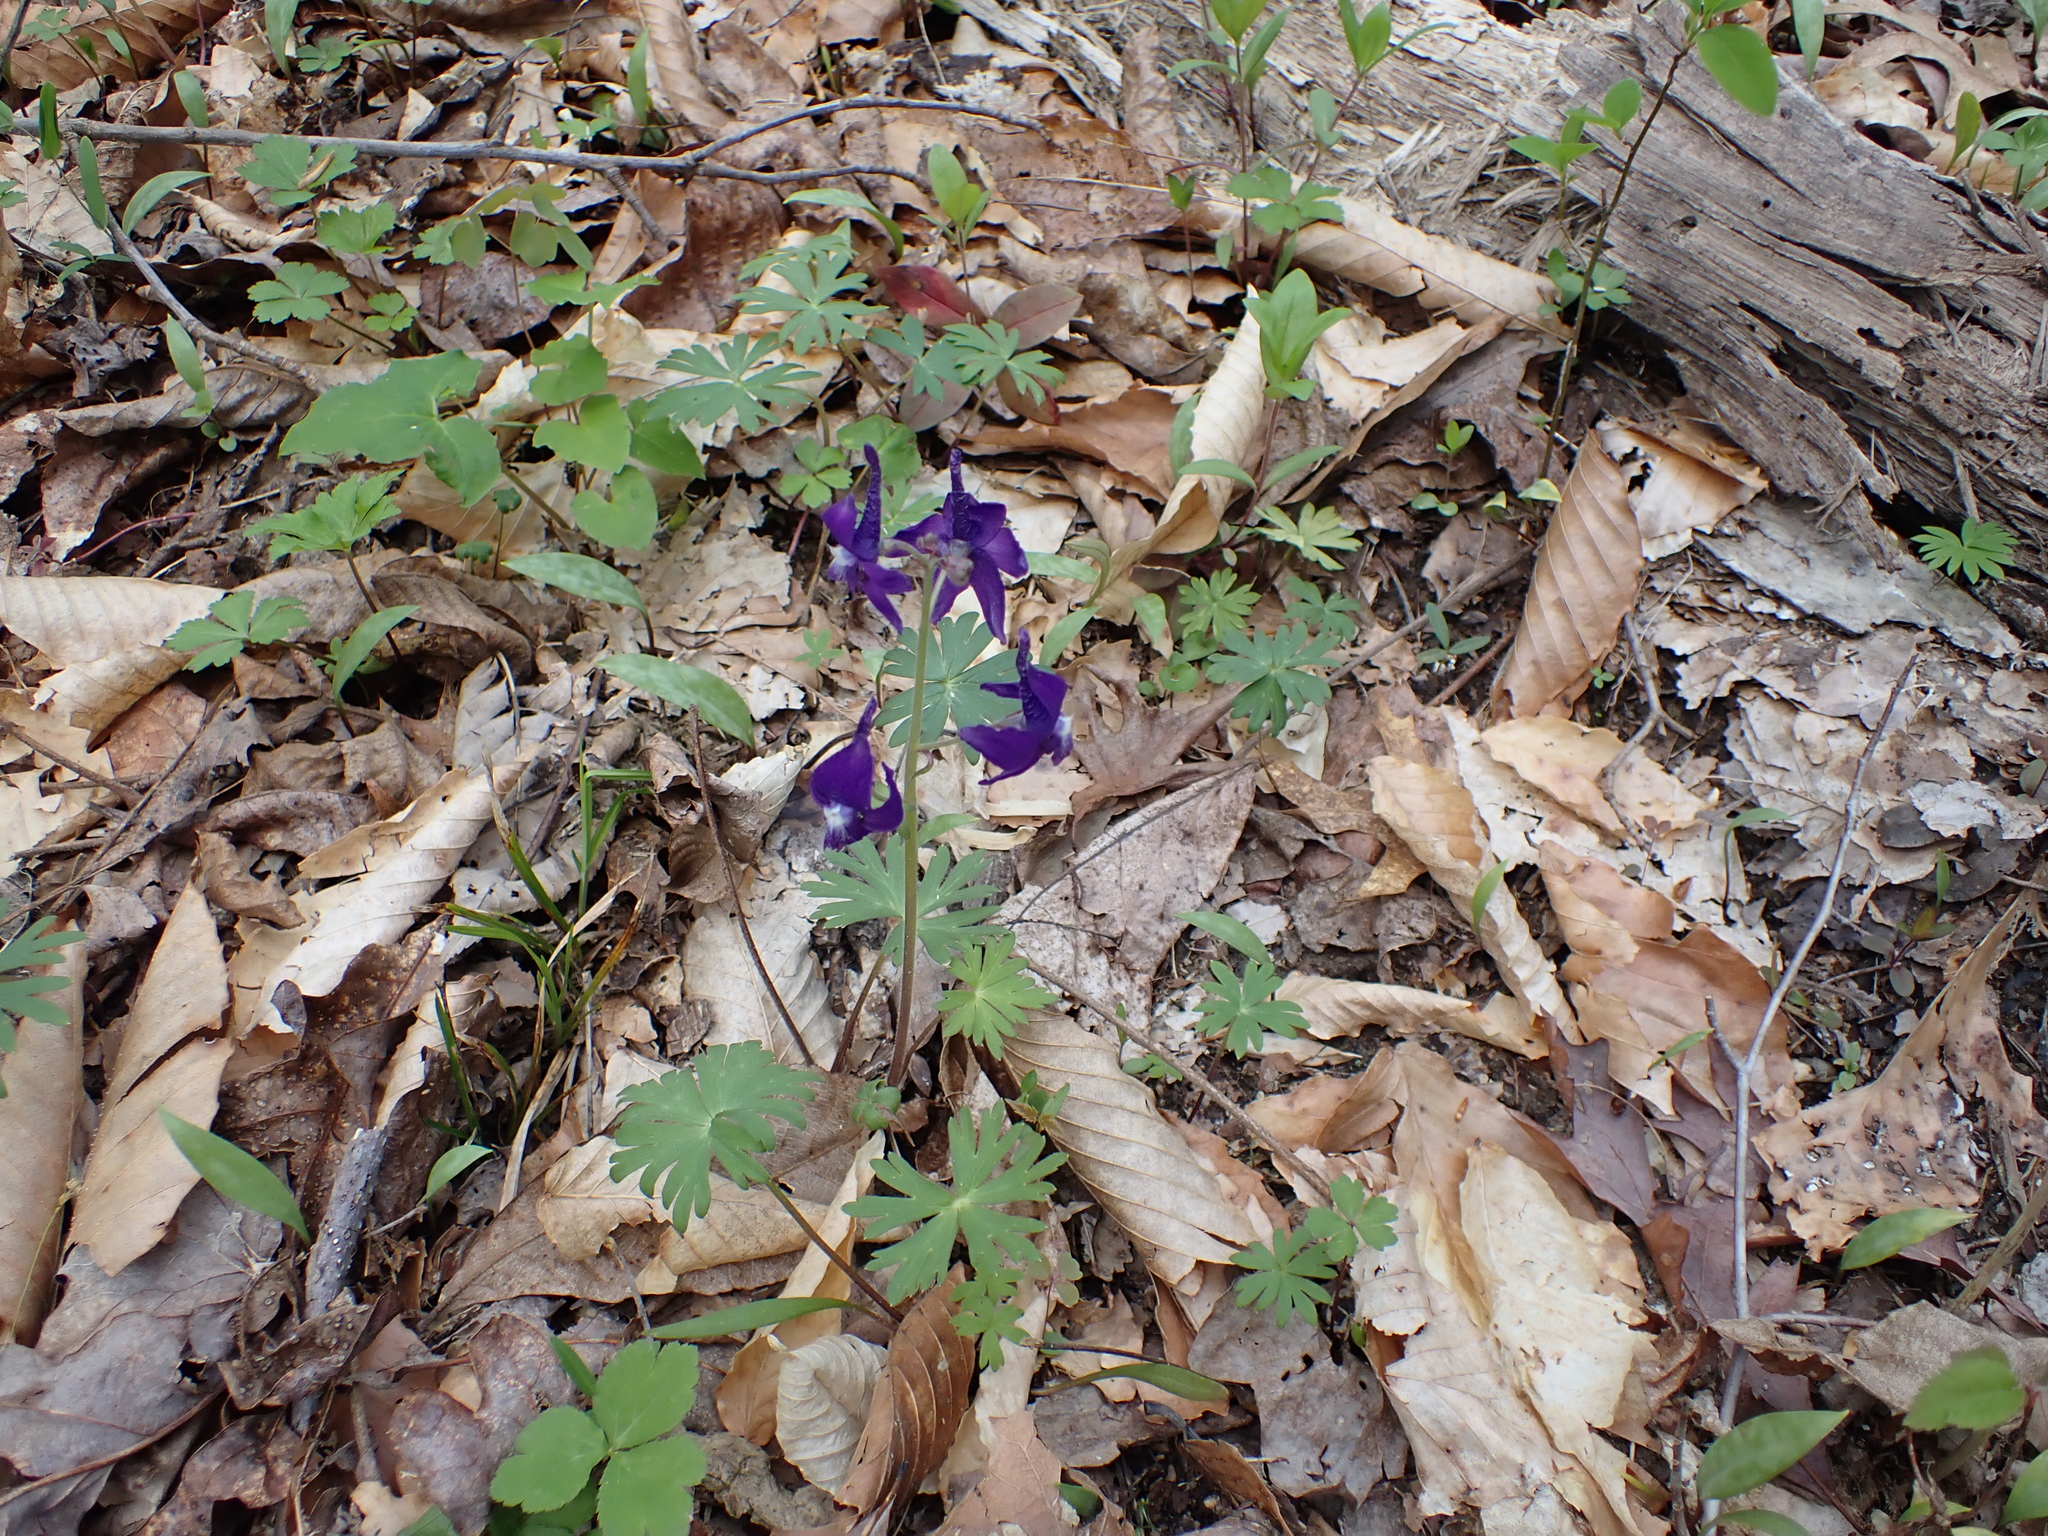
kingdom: Plantae
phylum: Tracheophyta
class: Magnoliopsida
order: Ranunculales
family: Ranunculaceae
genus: Delphinium
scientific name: Delphinium tricorne
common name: Dwarf larkspur
